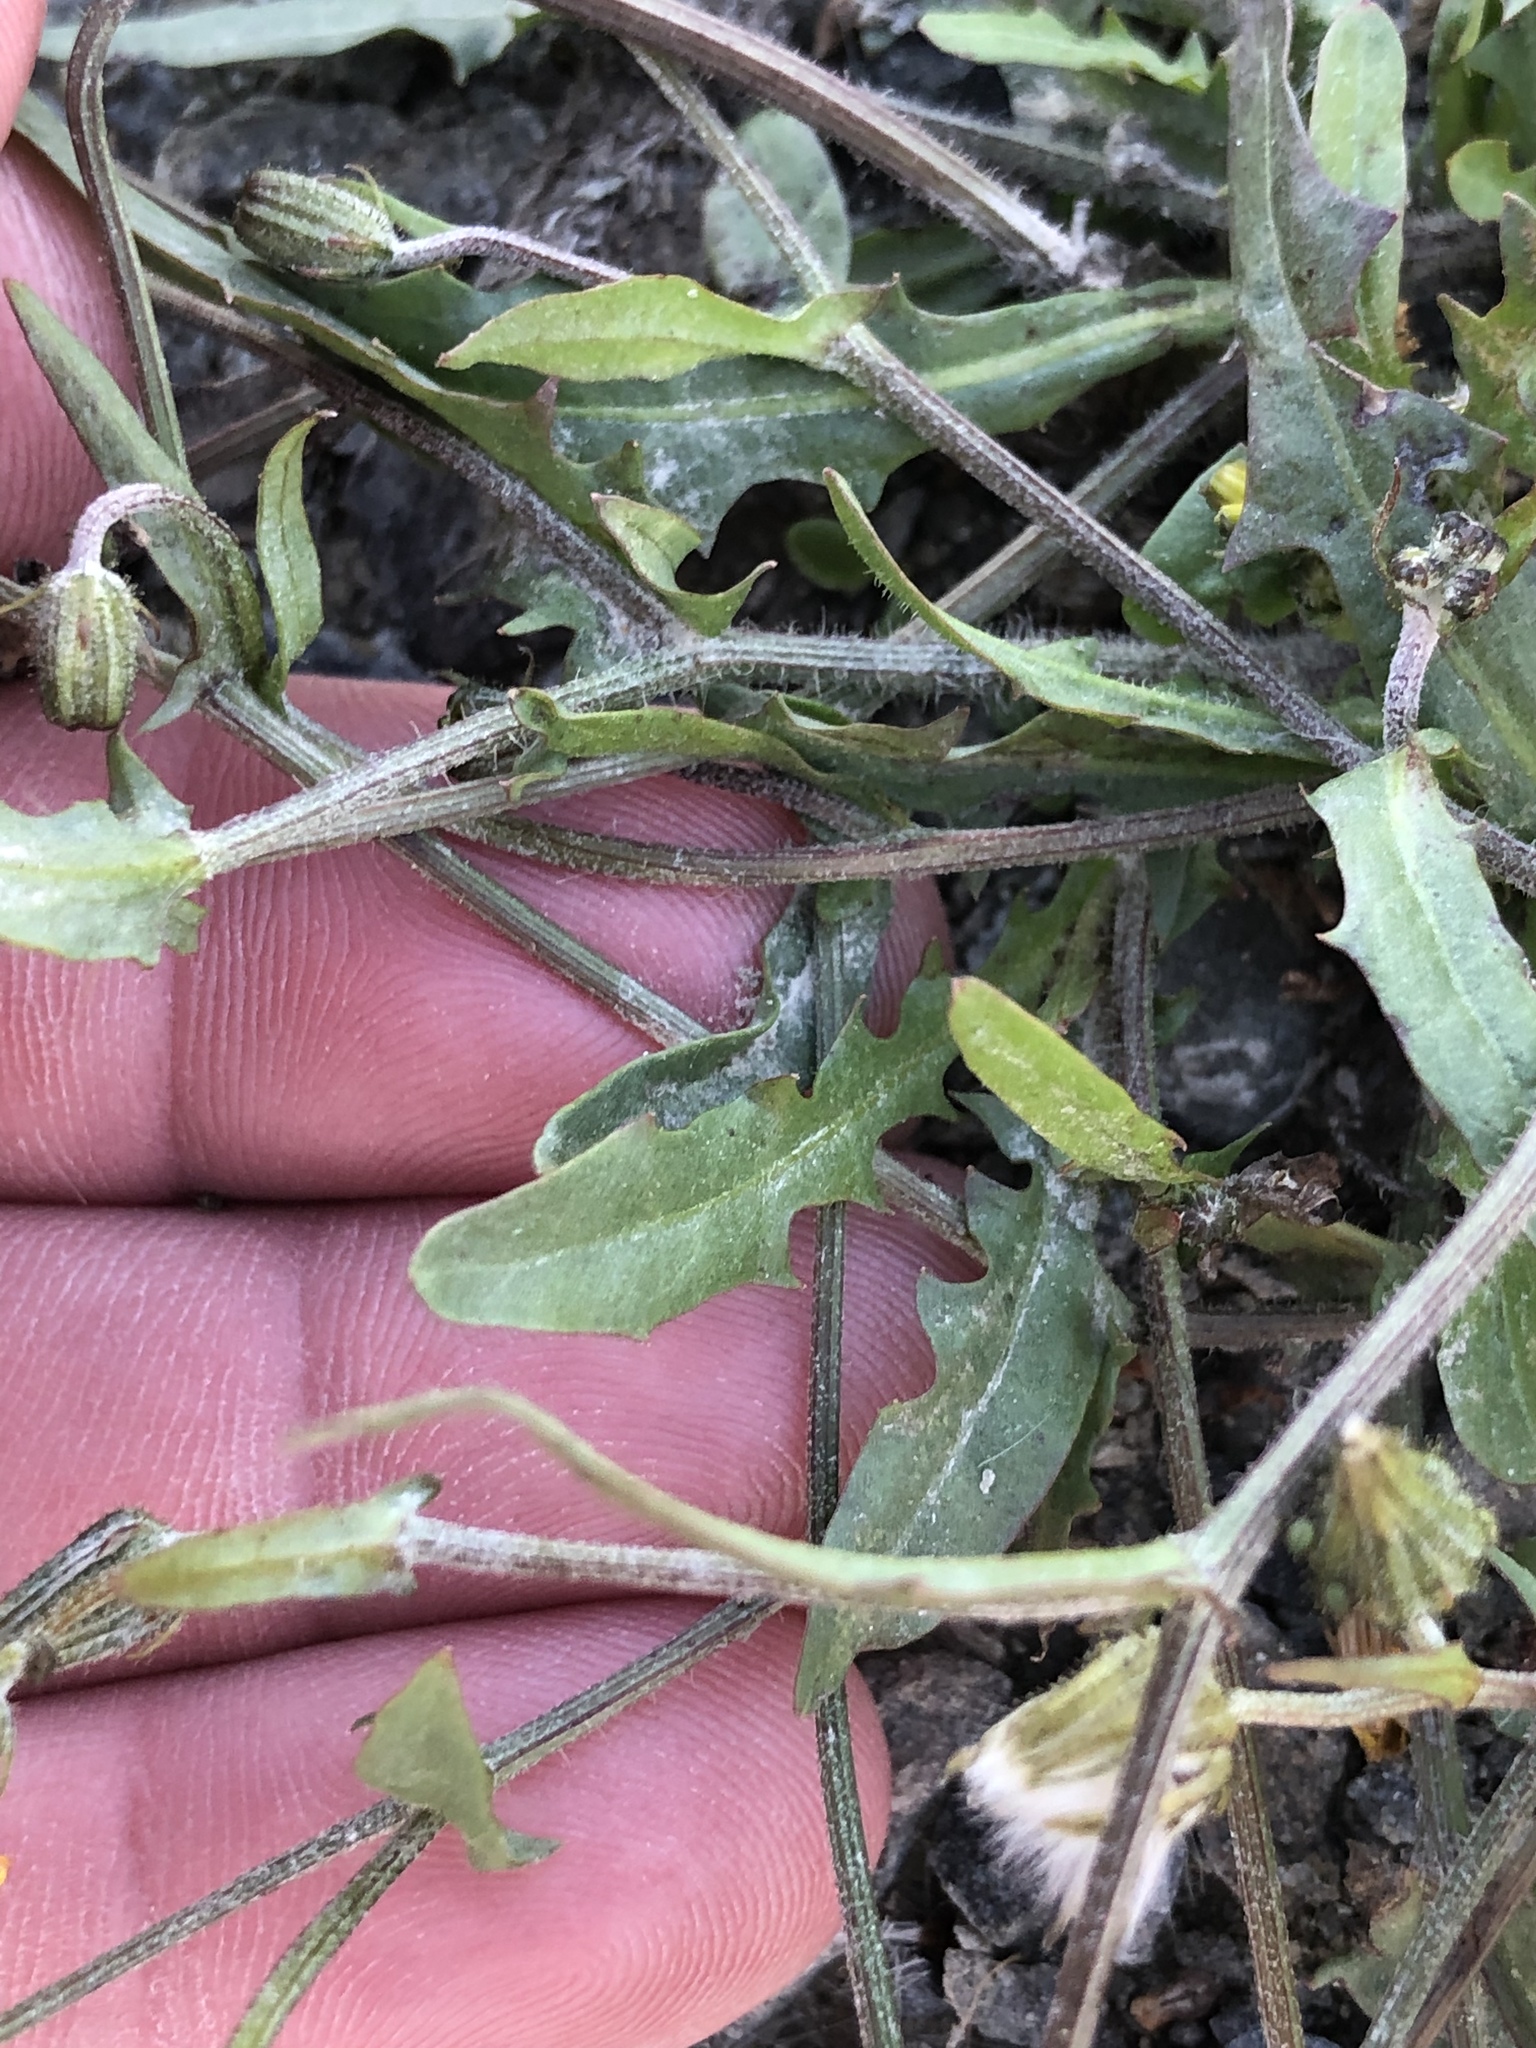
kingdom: Plantae
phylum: Tracheophyta
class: Magnoliopsida
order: Asterales
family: Asteraceae
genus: Crepis
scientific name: Crepis capillaris
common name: Smooth hawksbeard
